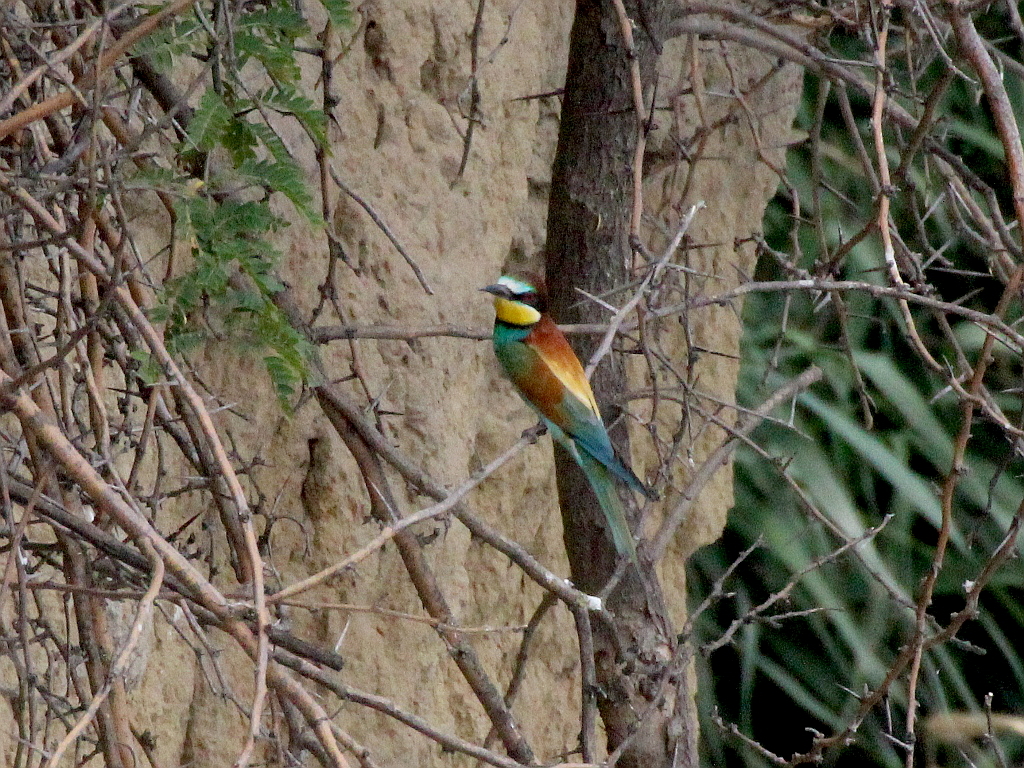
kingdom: Animalia
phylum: Chordata
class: Aves
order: Coraciiformes
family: Meropidae
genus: Merops
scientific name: Merops apiaster
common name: European bee-eater
